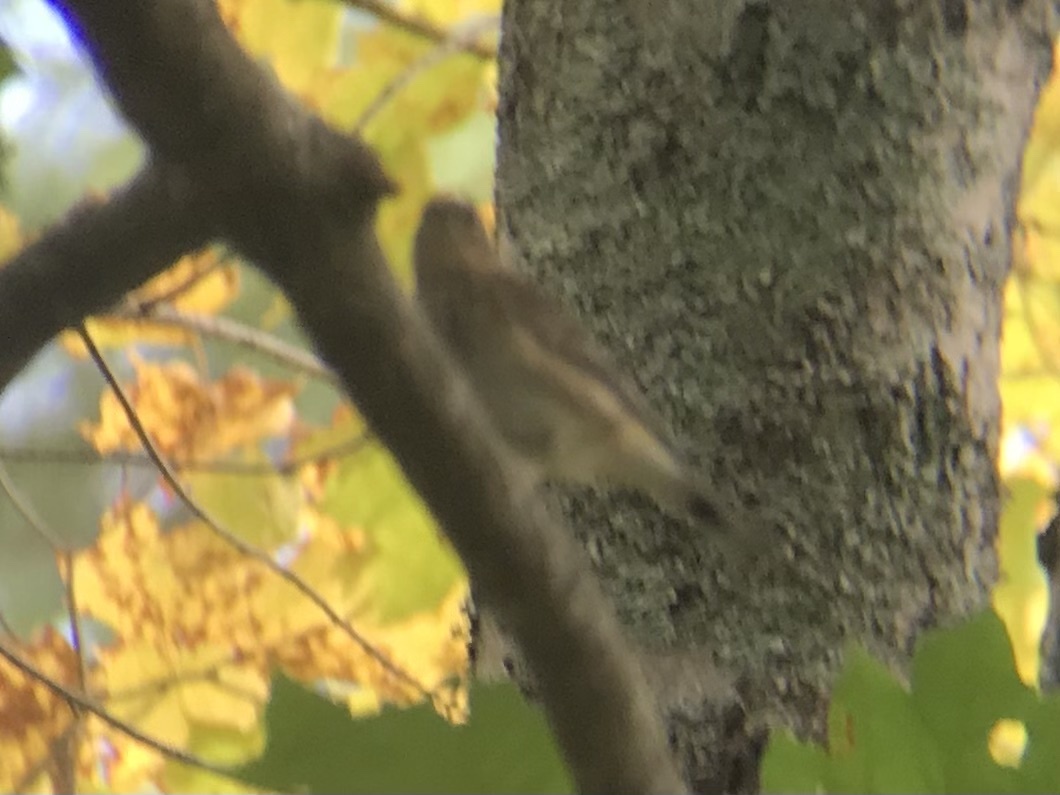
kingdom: Animalia
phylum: Chordata
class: Aves
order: Passeriformes
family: Parulidae
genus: Setophaga
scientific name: Setophaga coronata
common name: Myrtle warbler
